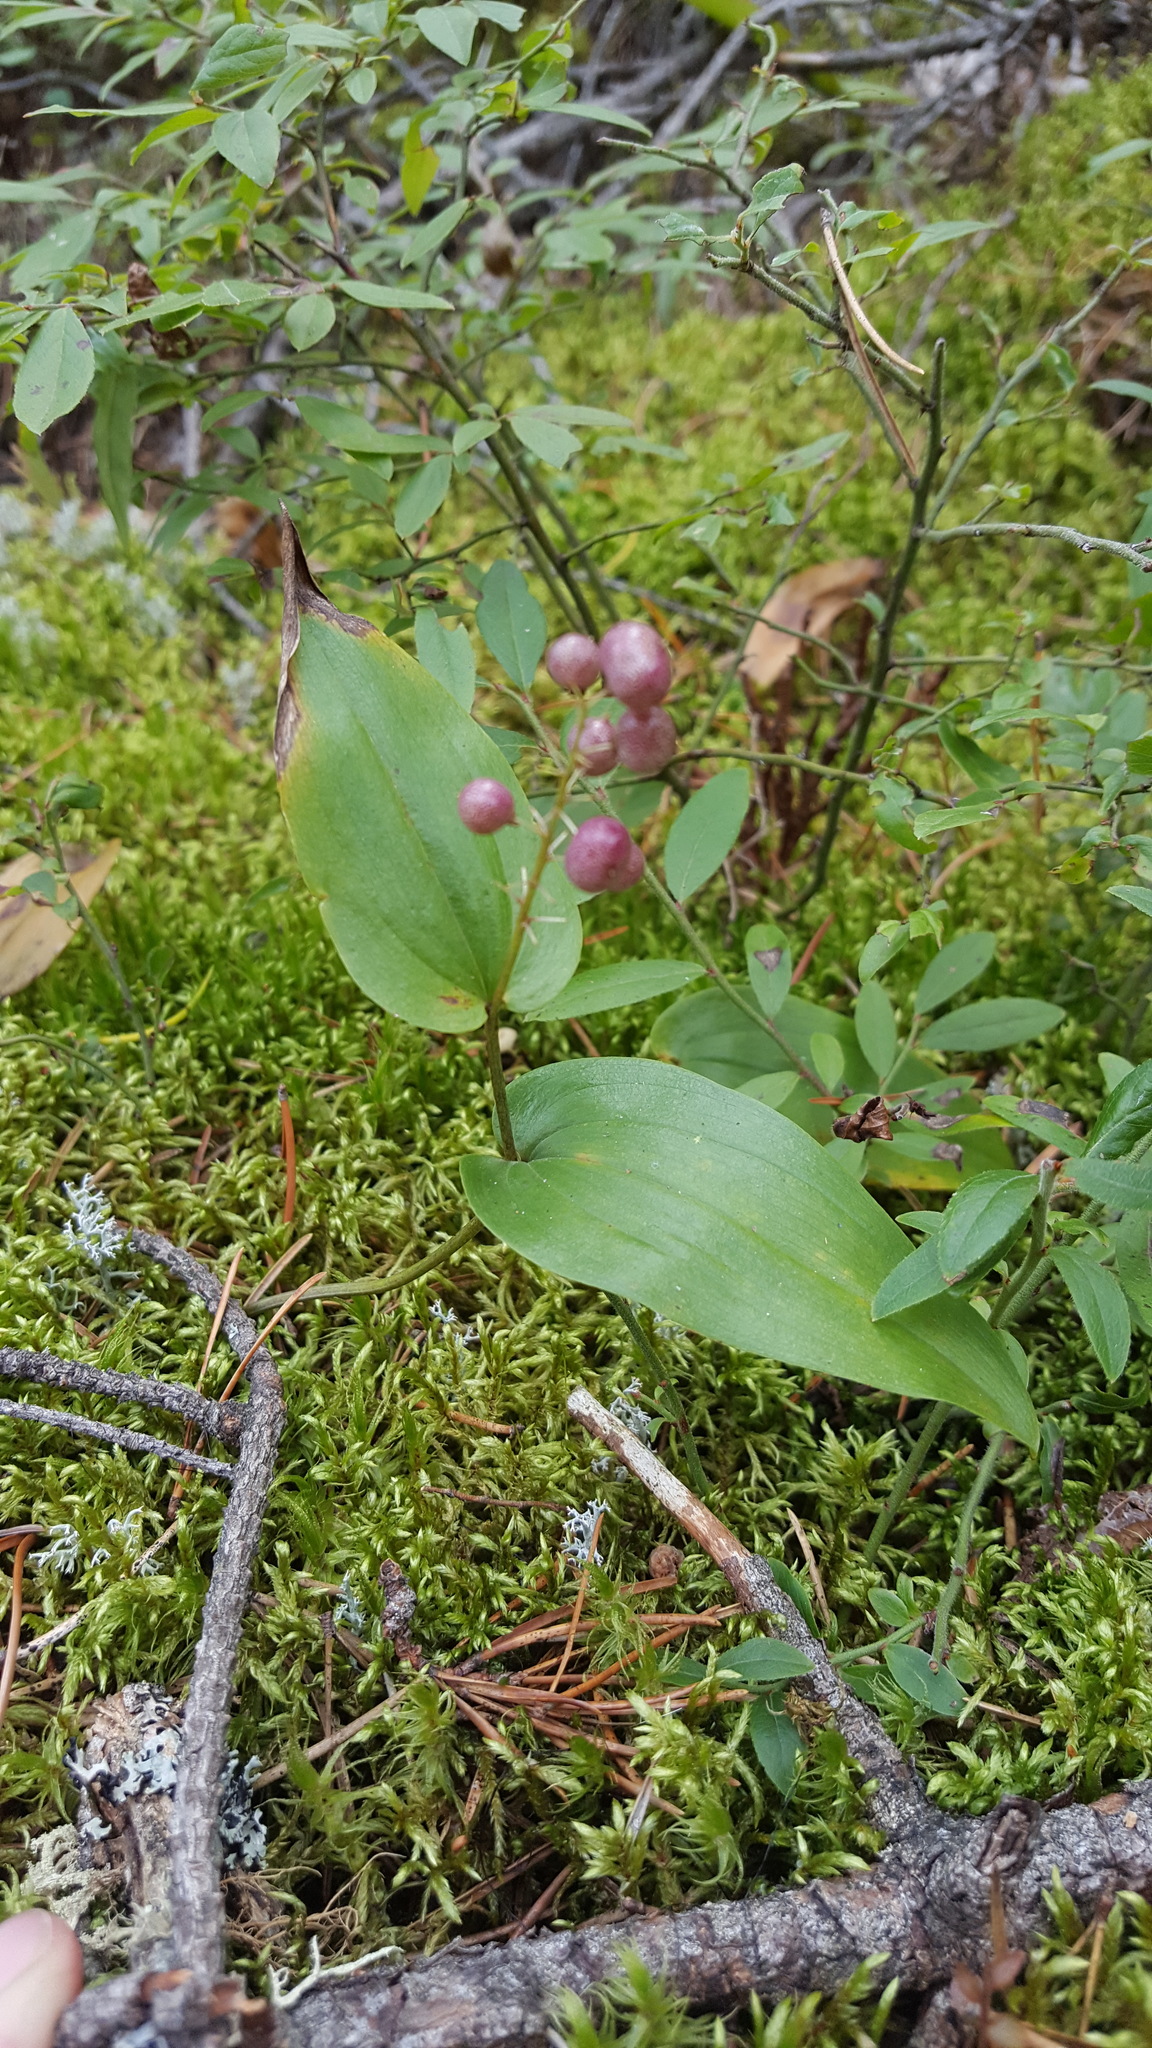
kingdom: Plantae
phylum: Tracheophyta
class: Liliopsida
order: Asparagales
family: Asparagaceae
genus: Maianthemum
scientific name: Maianthemum canadense
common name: False lily-of-the-valley
